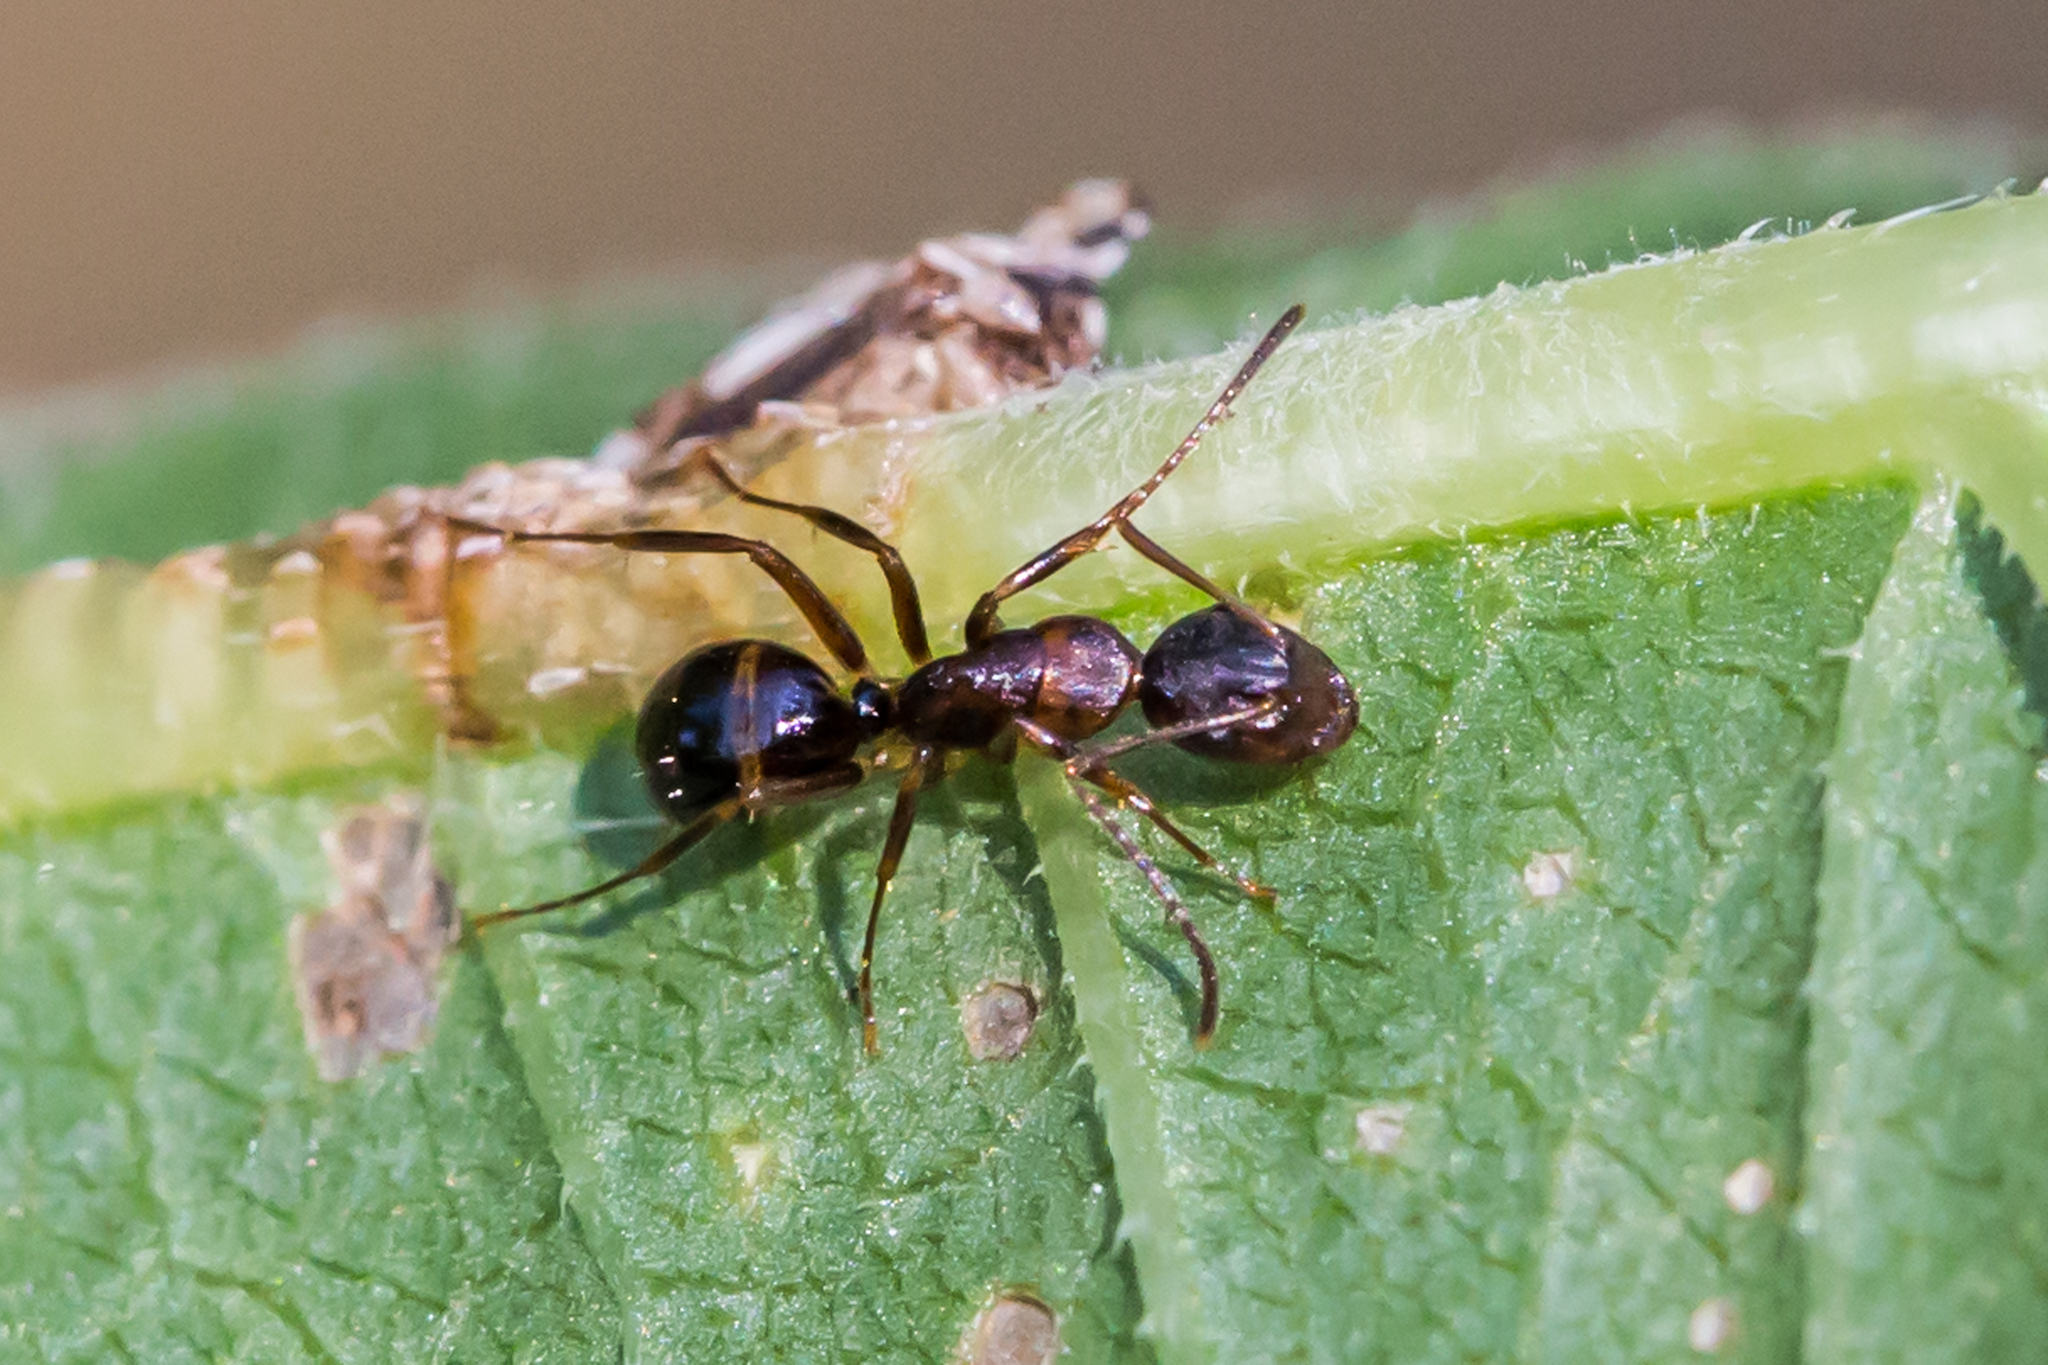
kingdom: Animalia
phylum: Arthropoda
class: Insecta
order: Hymenoptera
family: Formicidae
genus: Camponotus
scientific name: Camponotus subbarbatus
